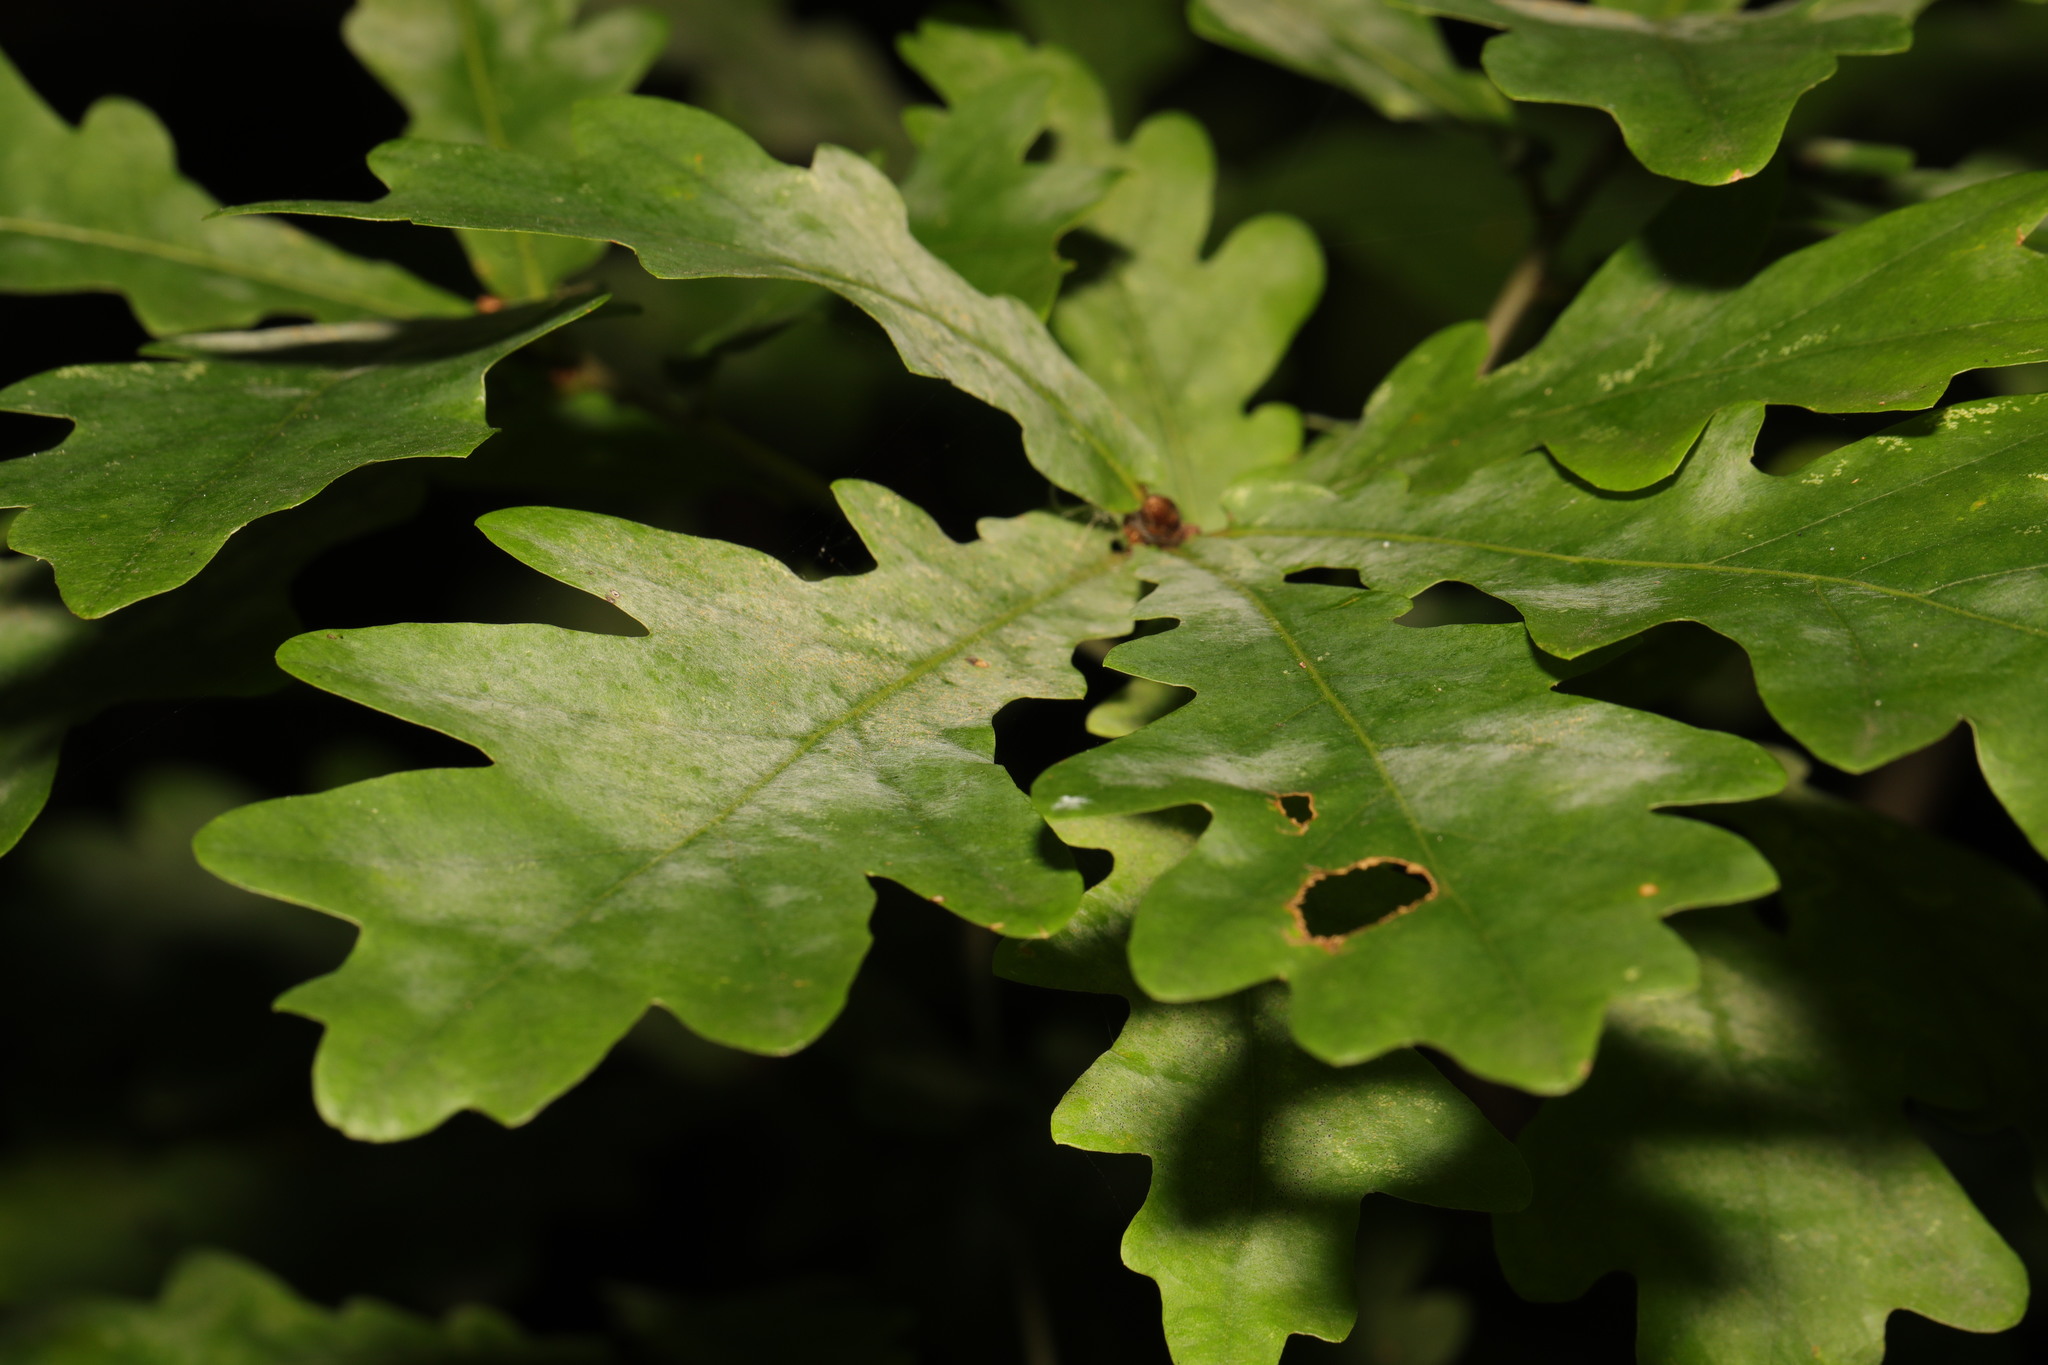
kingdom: Plantae
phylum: Tracheophyta
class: Magnoliopsida
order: Fagales
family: Fagaceae
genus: Quercus
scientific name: Quercus robur
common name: Pedunculate oak
